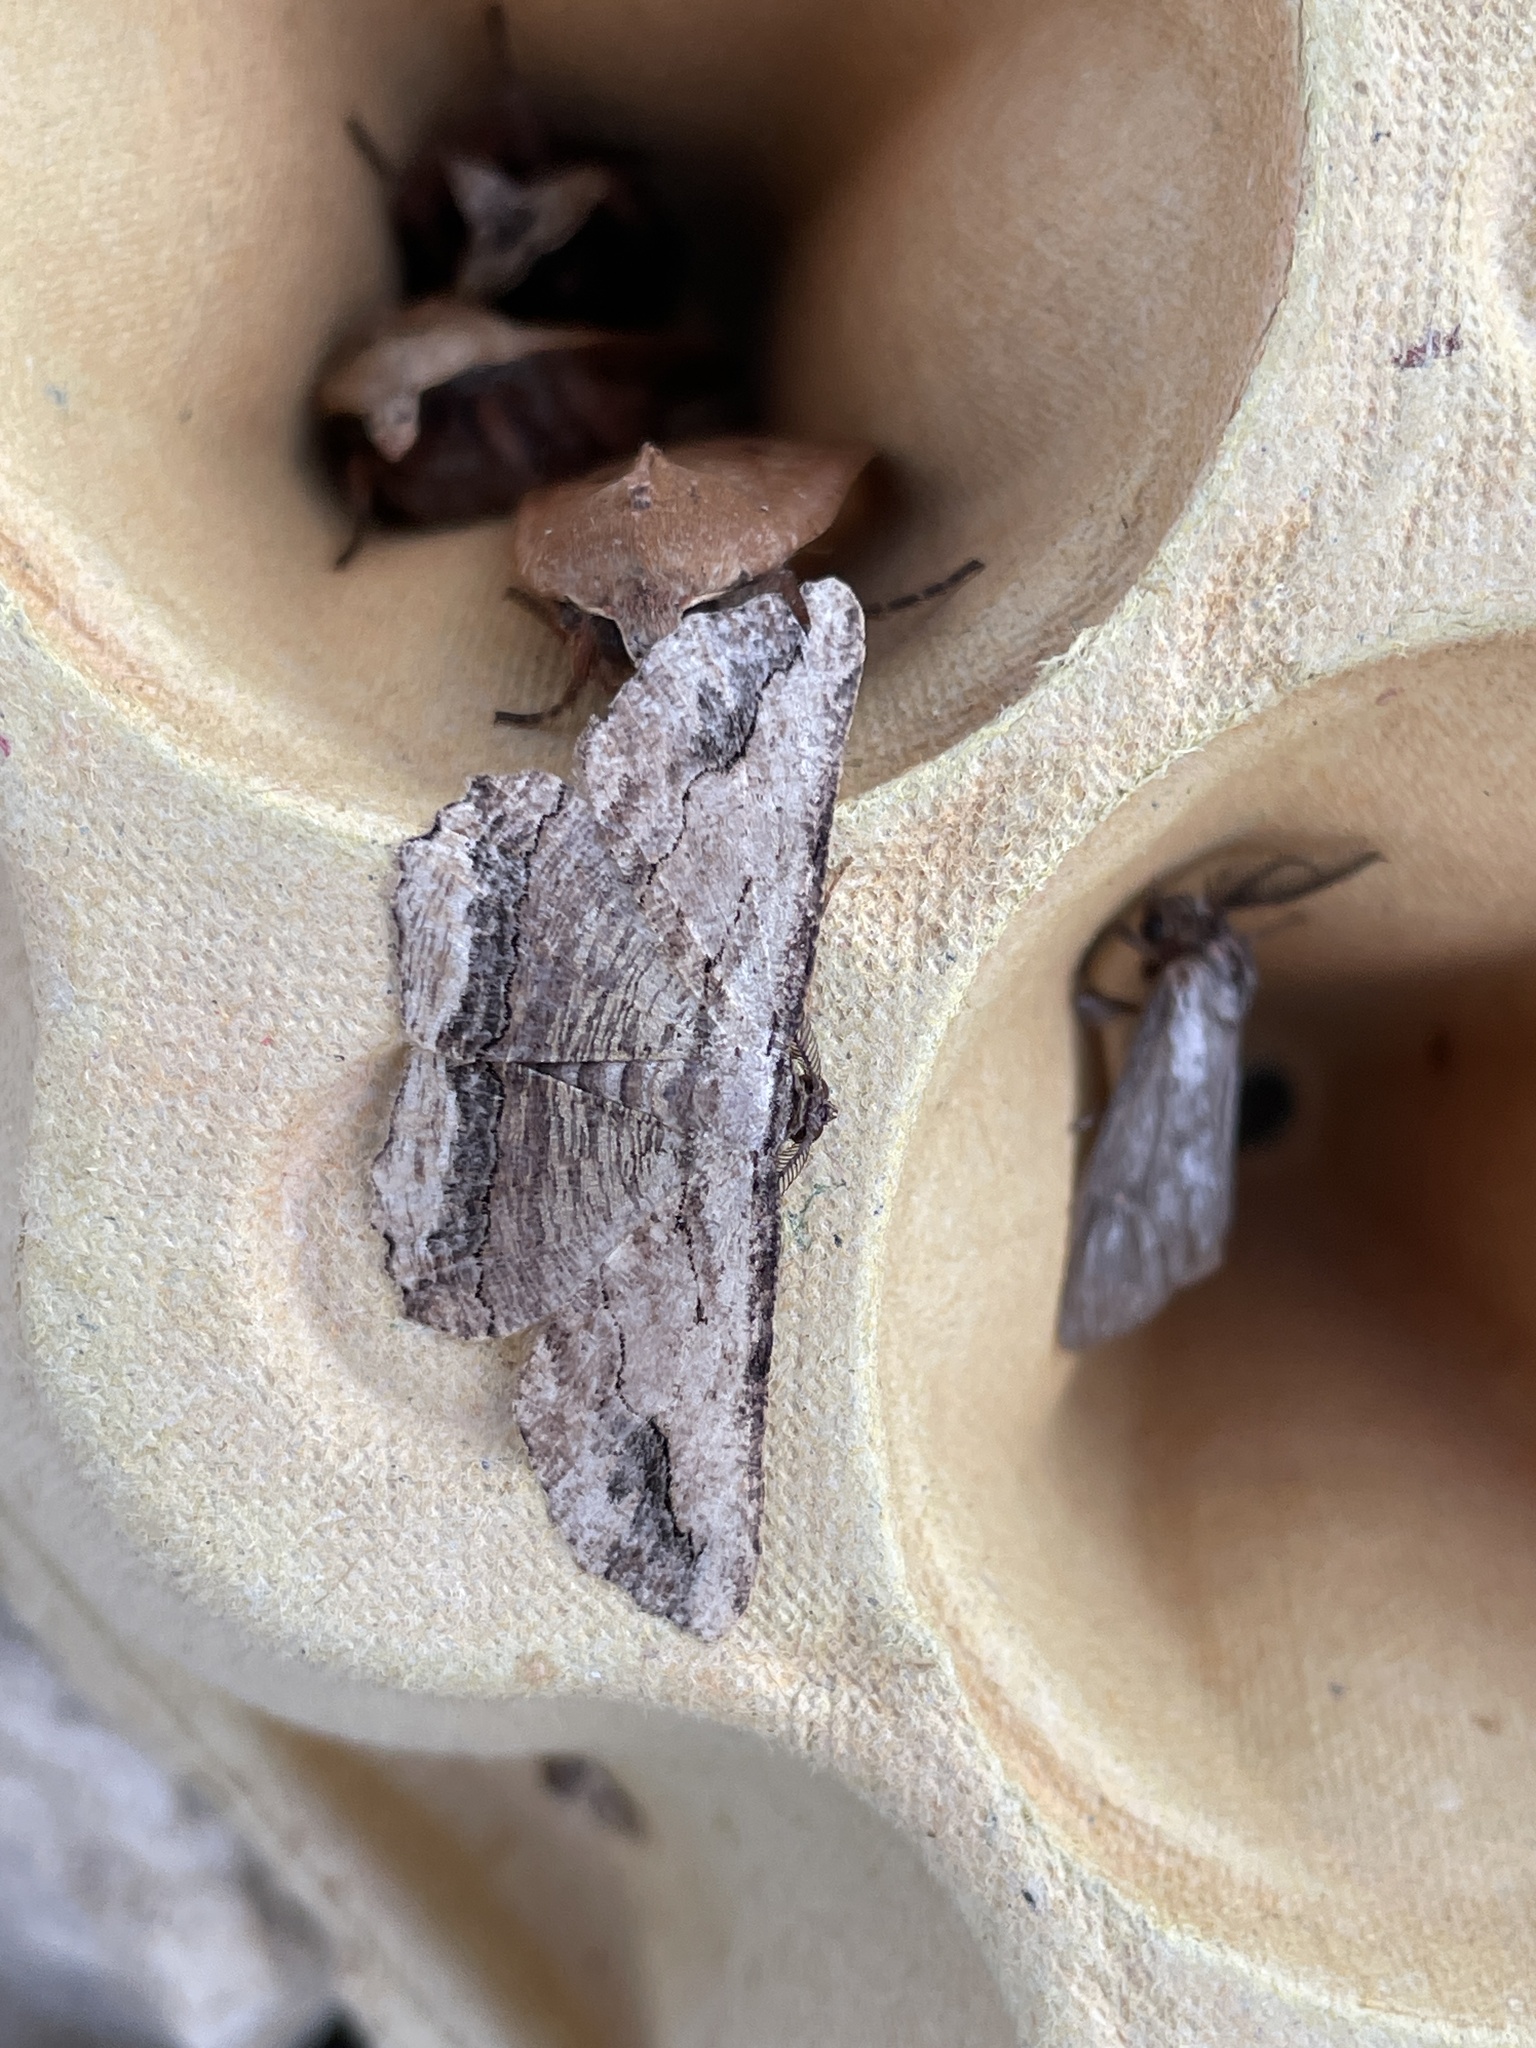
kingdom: Animalia
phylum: Arthropoda
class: Insecta
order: Lepidoptera
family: Geometridae
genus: Menophra
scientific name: Menophra abruptaria
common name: Waved umber
